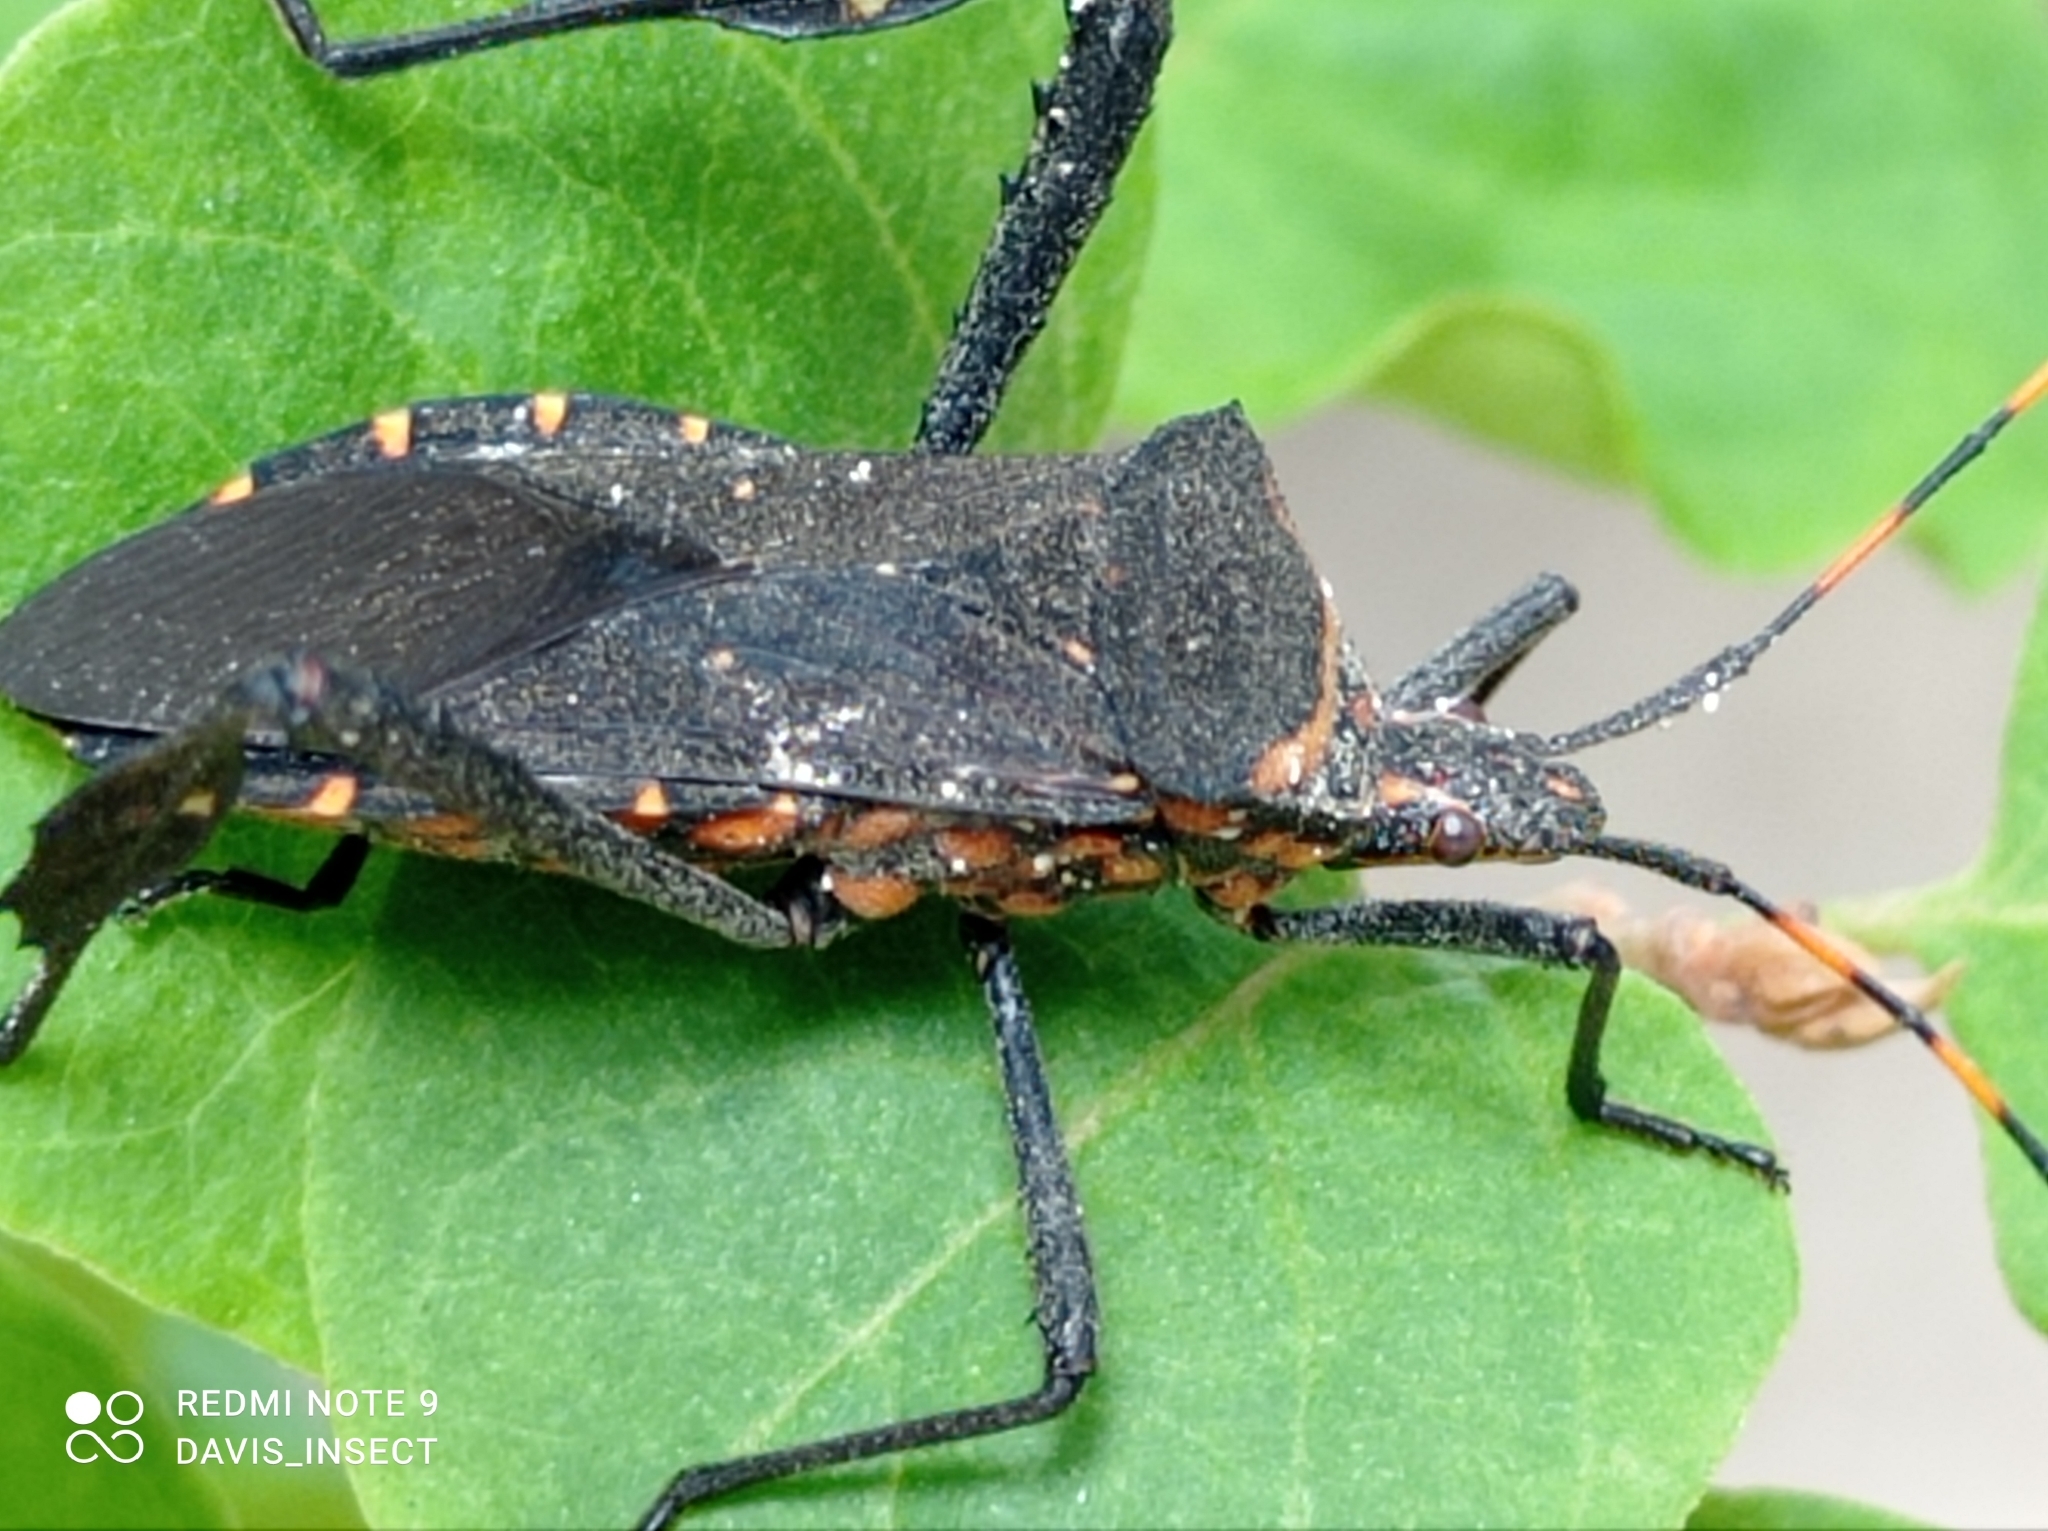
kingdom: Animalia
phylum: Arthropoda
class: Insecta
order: Hemiptera
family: Coreidae
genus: Leptoglossus
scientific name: Leptoglossus gonagra
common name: Citron bug
